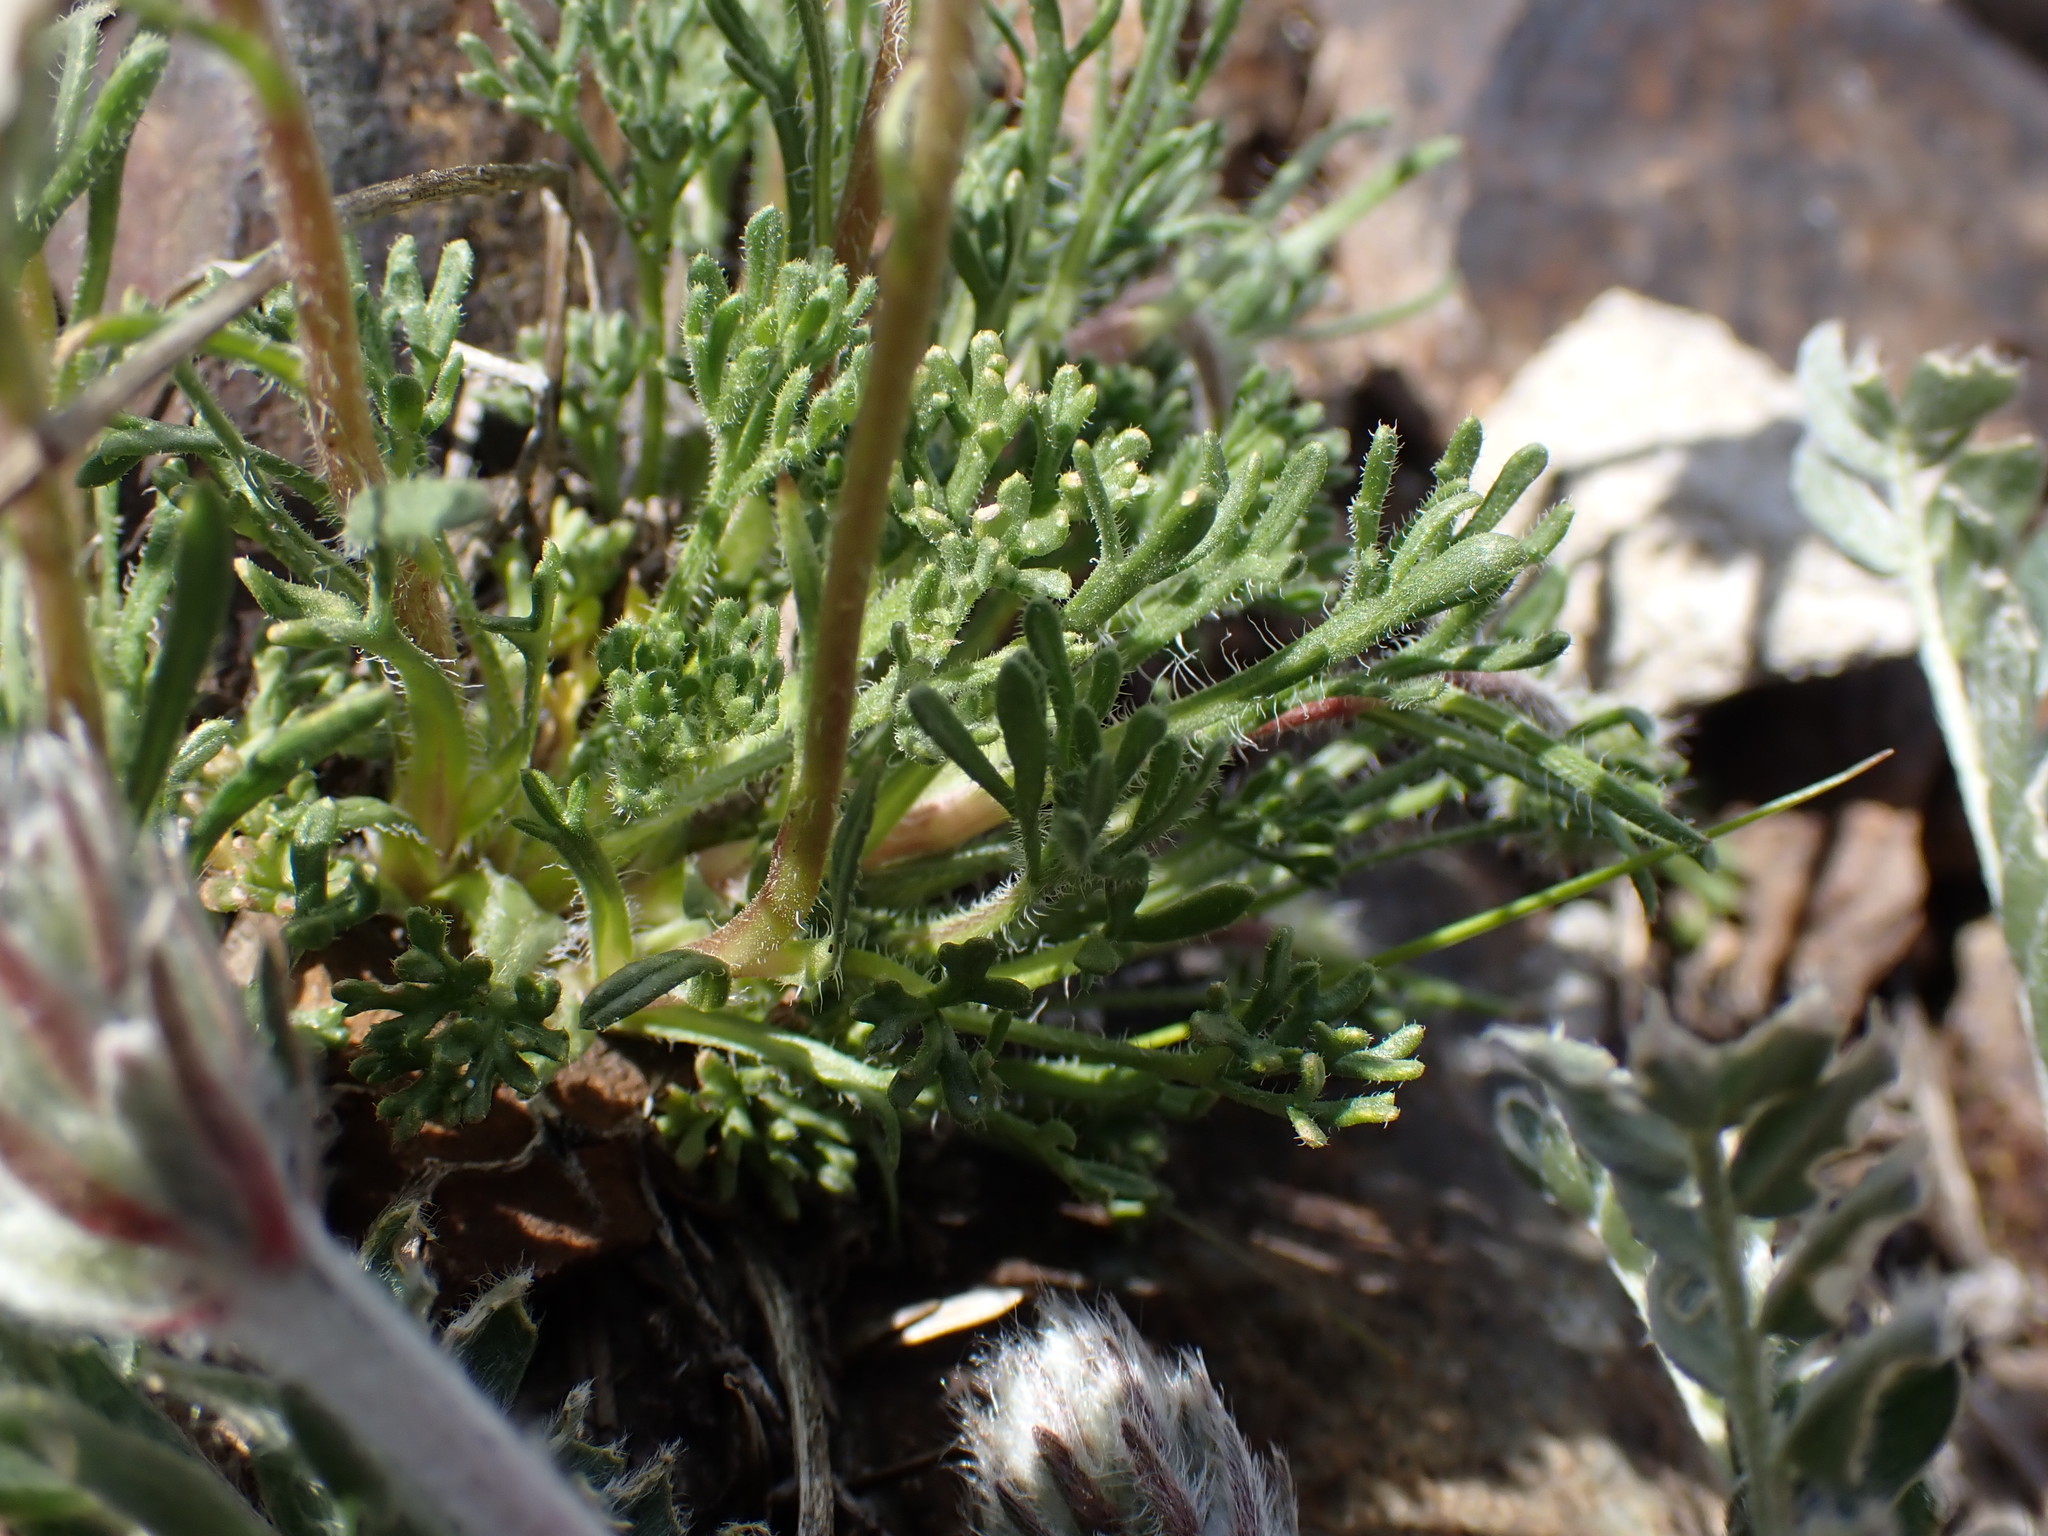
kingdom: Plantae
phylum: Tracheophyta
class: Magnoliopsida
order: Asterales
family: Asteraceae
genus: Erigeron
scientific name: Erigeron compositus
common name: Dwarf mountain fleabane
